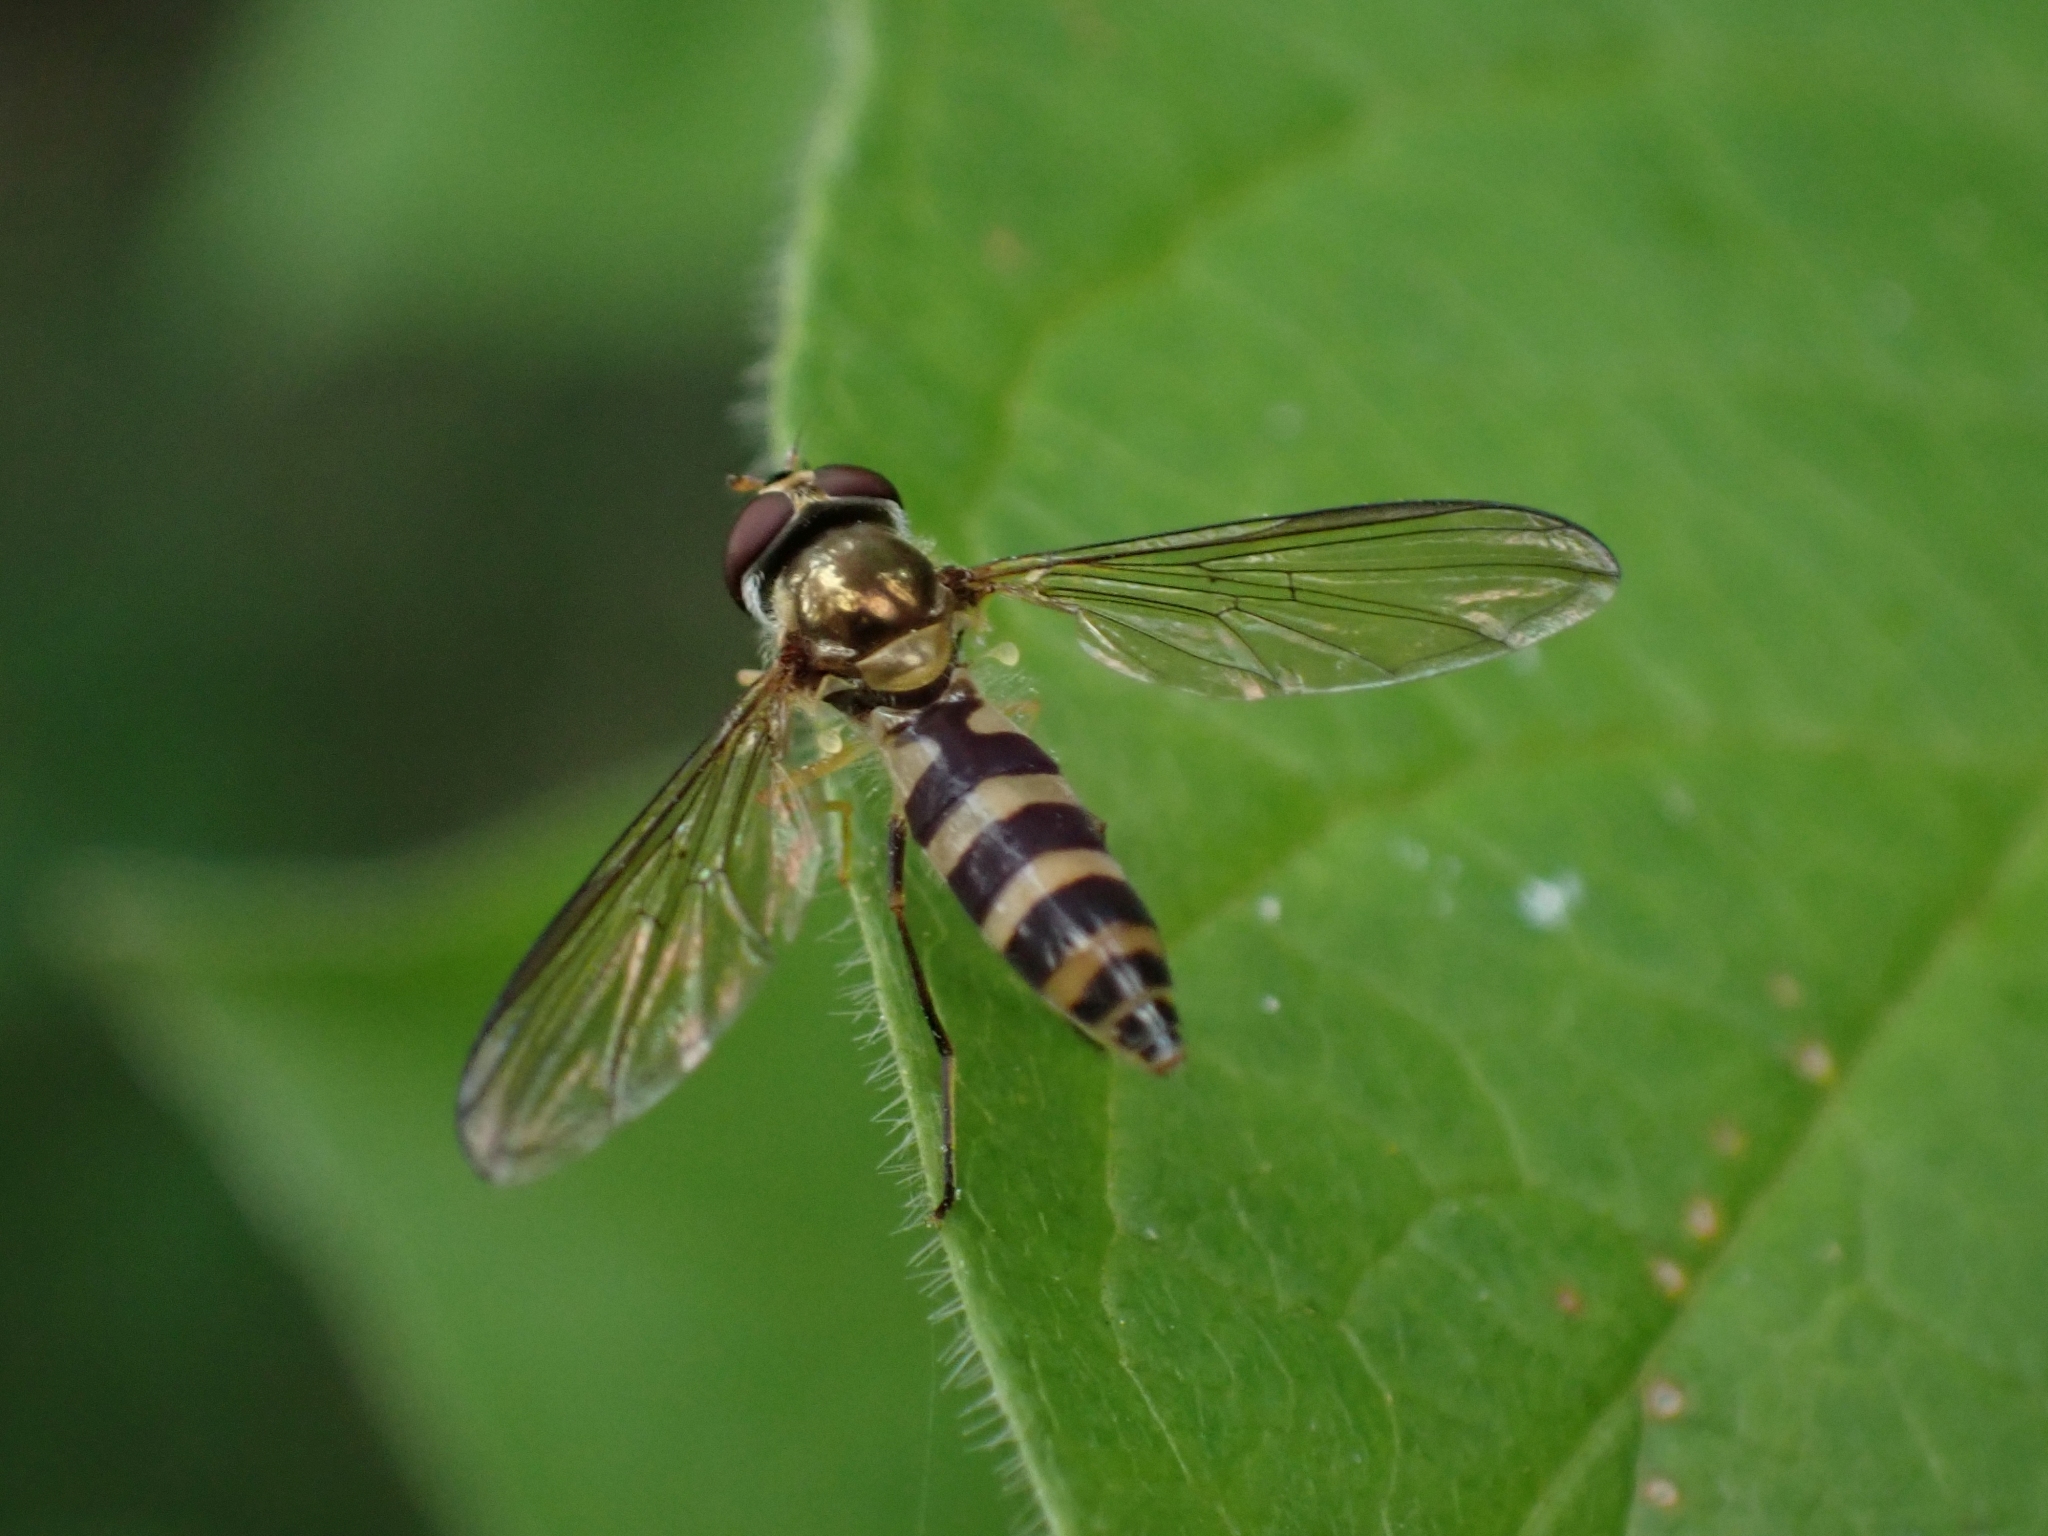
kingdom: Animalia
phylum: Arthropoda
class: Insecta
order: Diptera
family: Syrphidae
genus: Meliscaeva
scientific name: Meliscaeva cinctella
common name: American thintail fly
